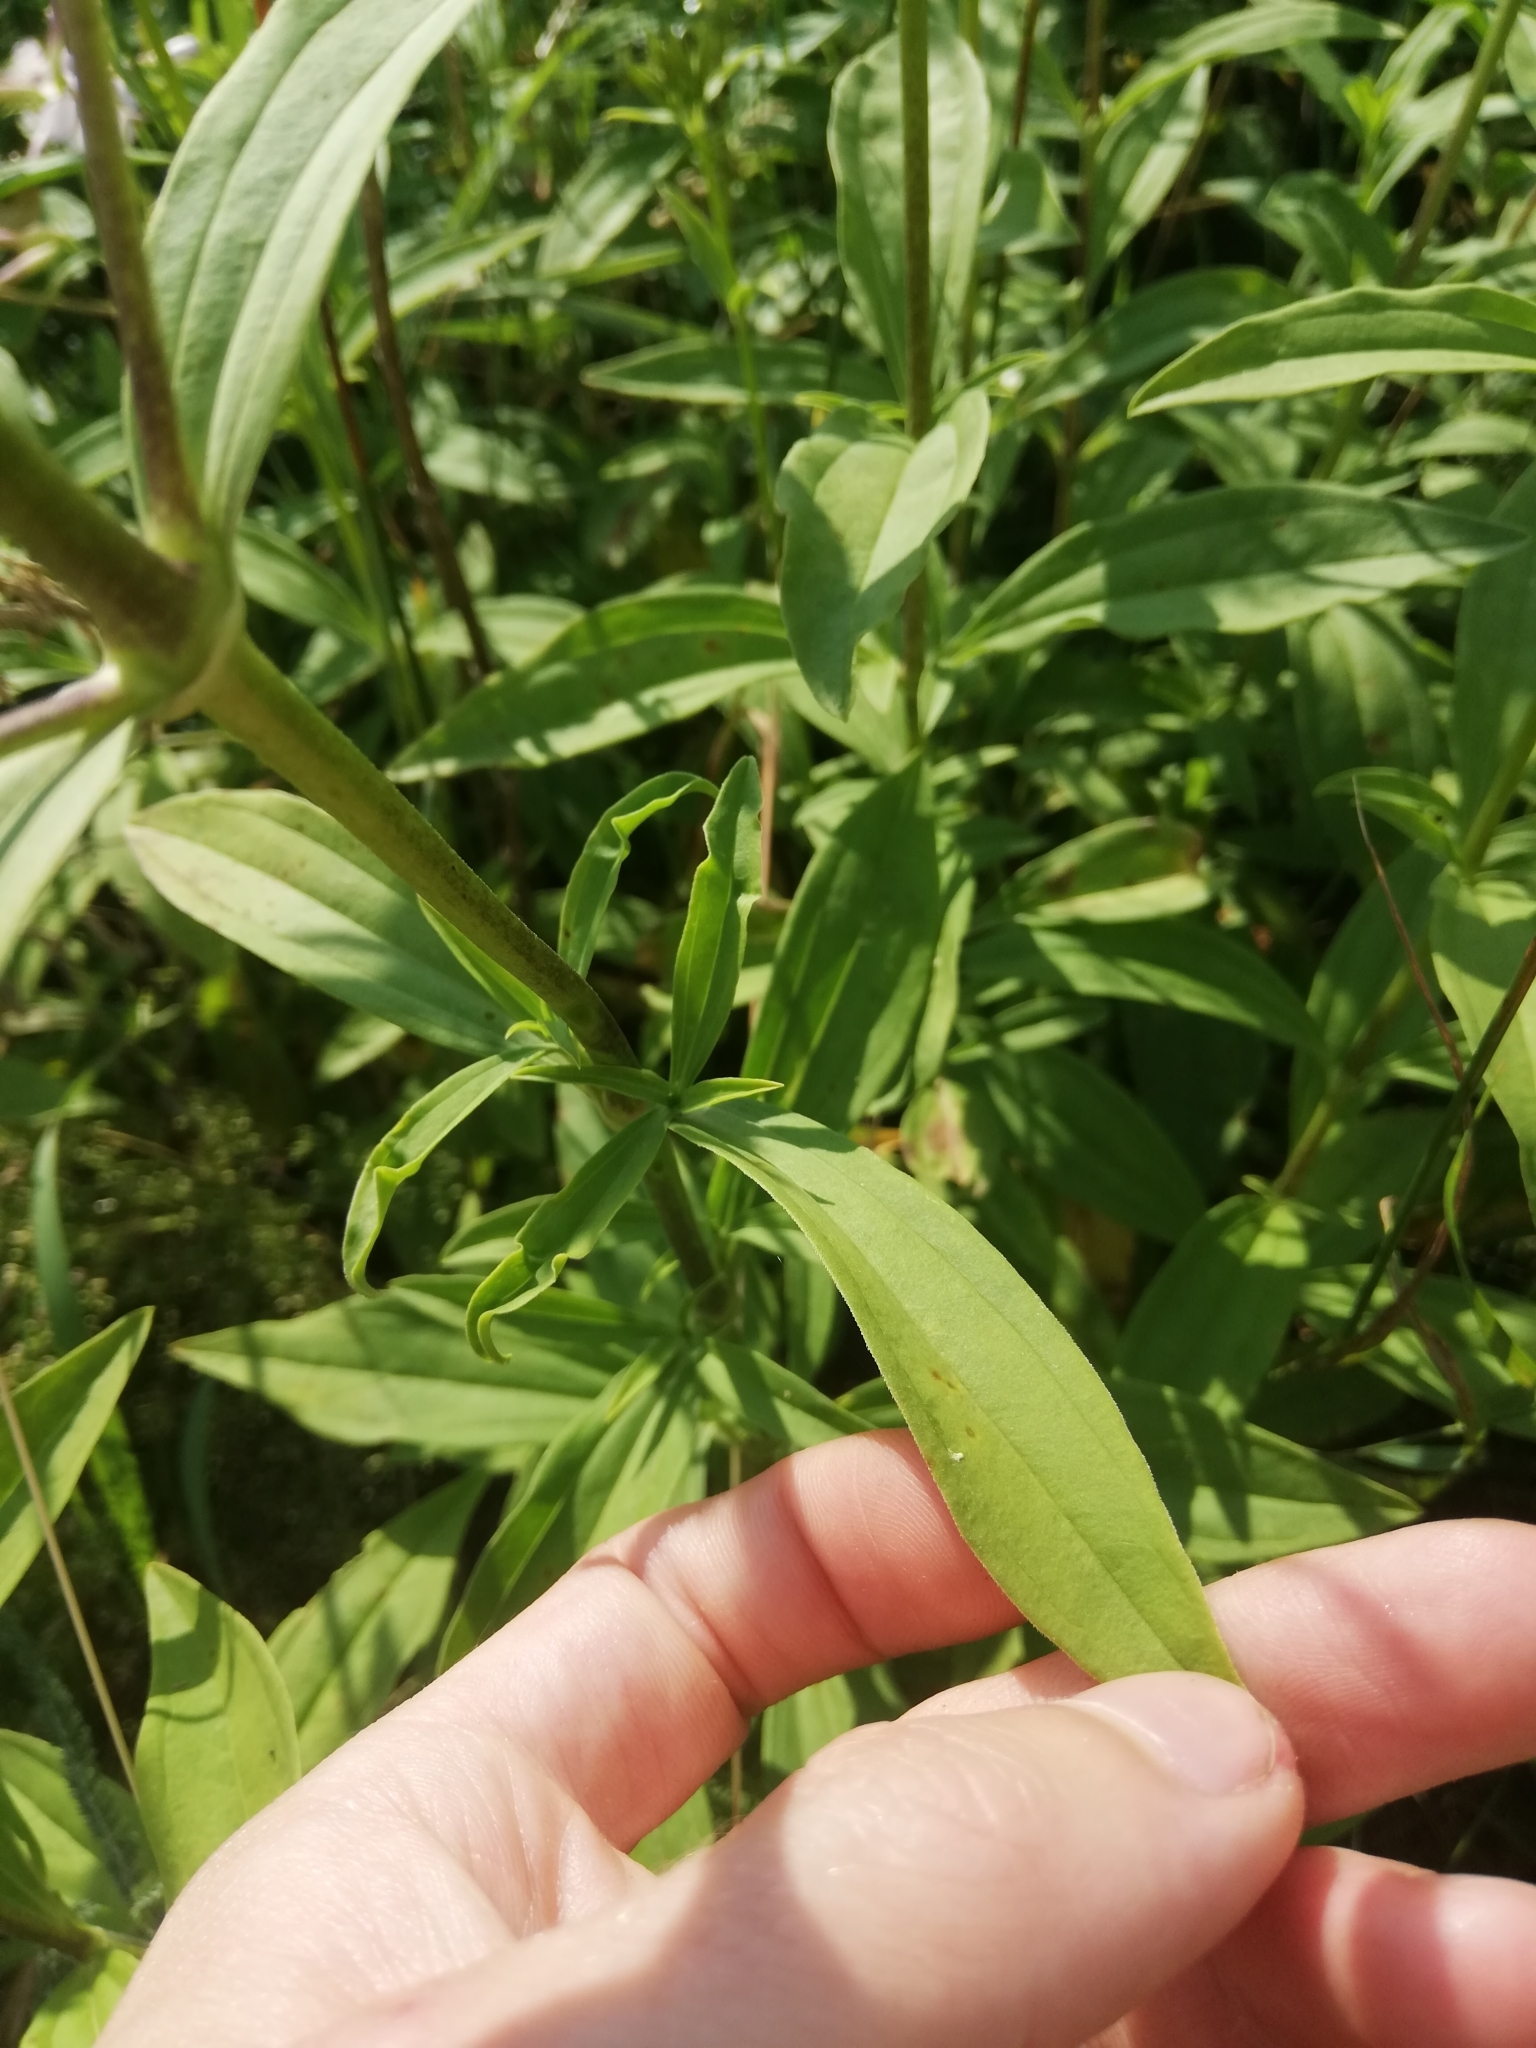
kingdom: Plantae
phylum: Tracheophyta
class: Magnoliopsida
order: Caryophyllales
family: Caryophyllaceae
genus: Saponaria
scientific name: Saponaria officinalis
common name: Soapwort
